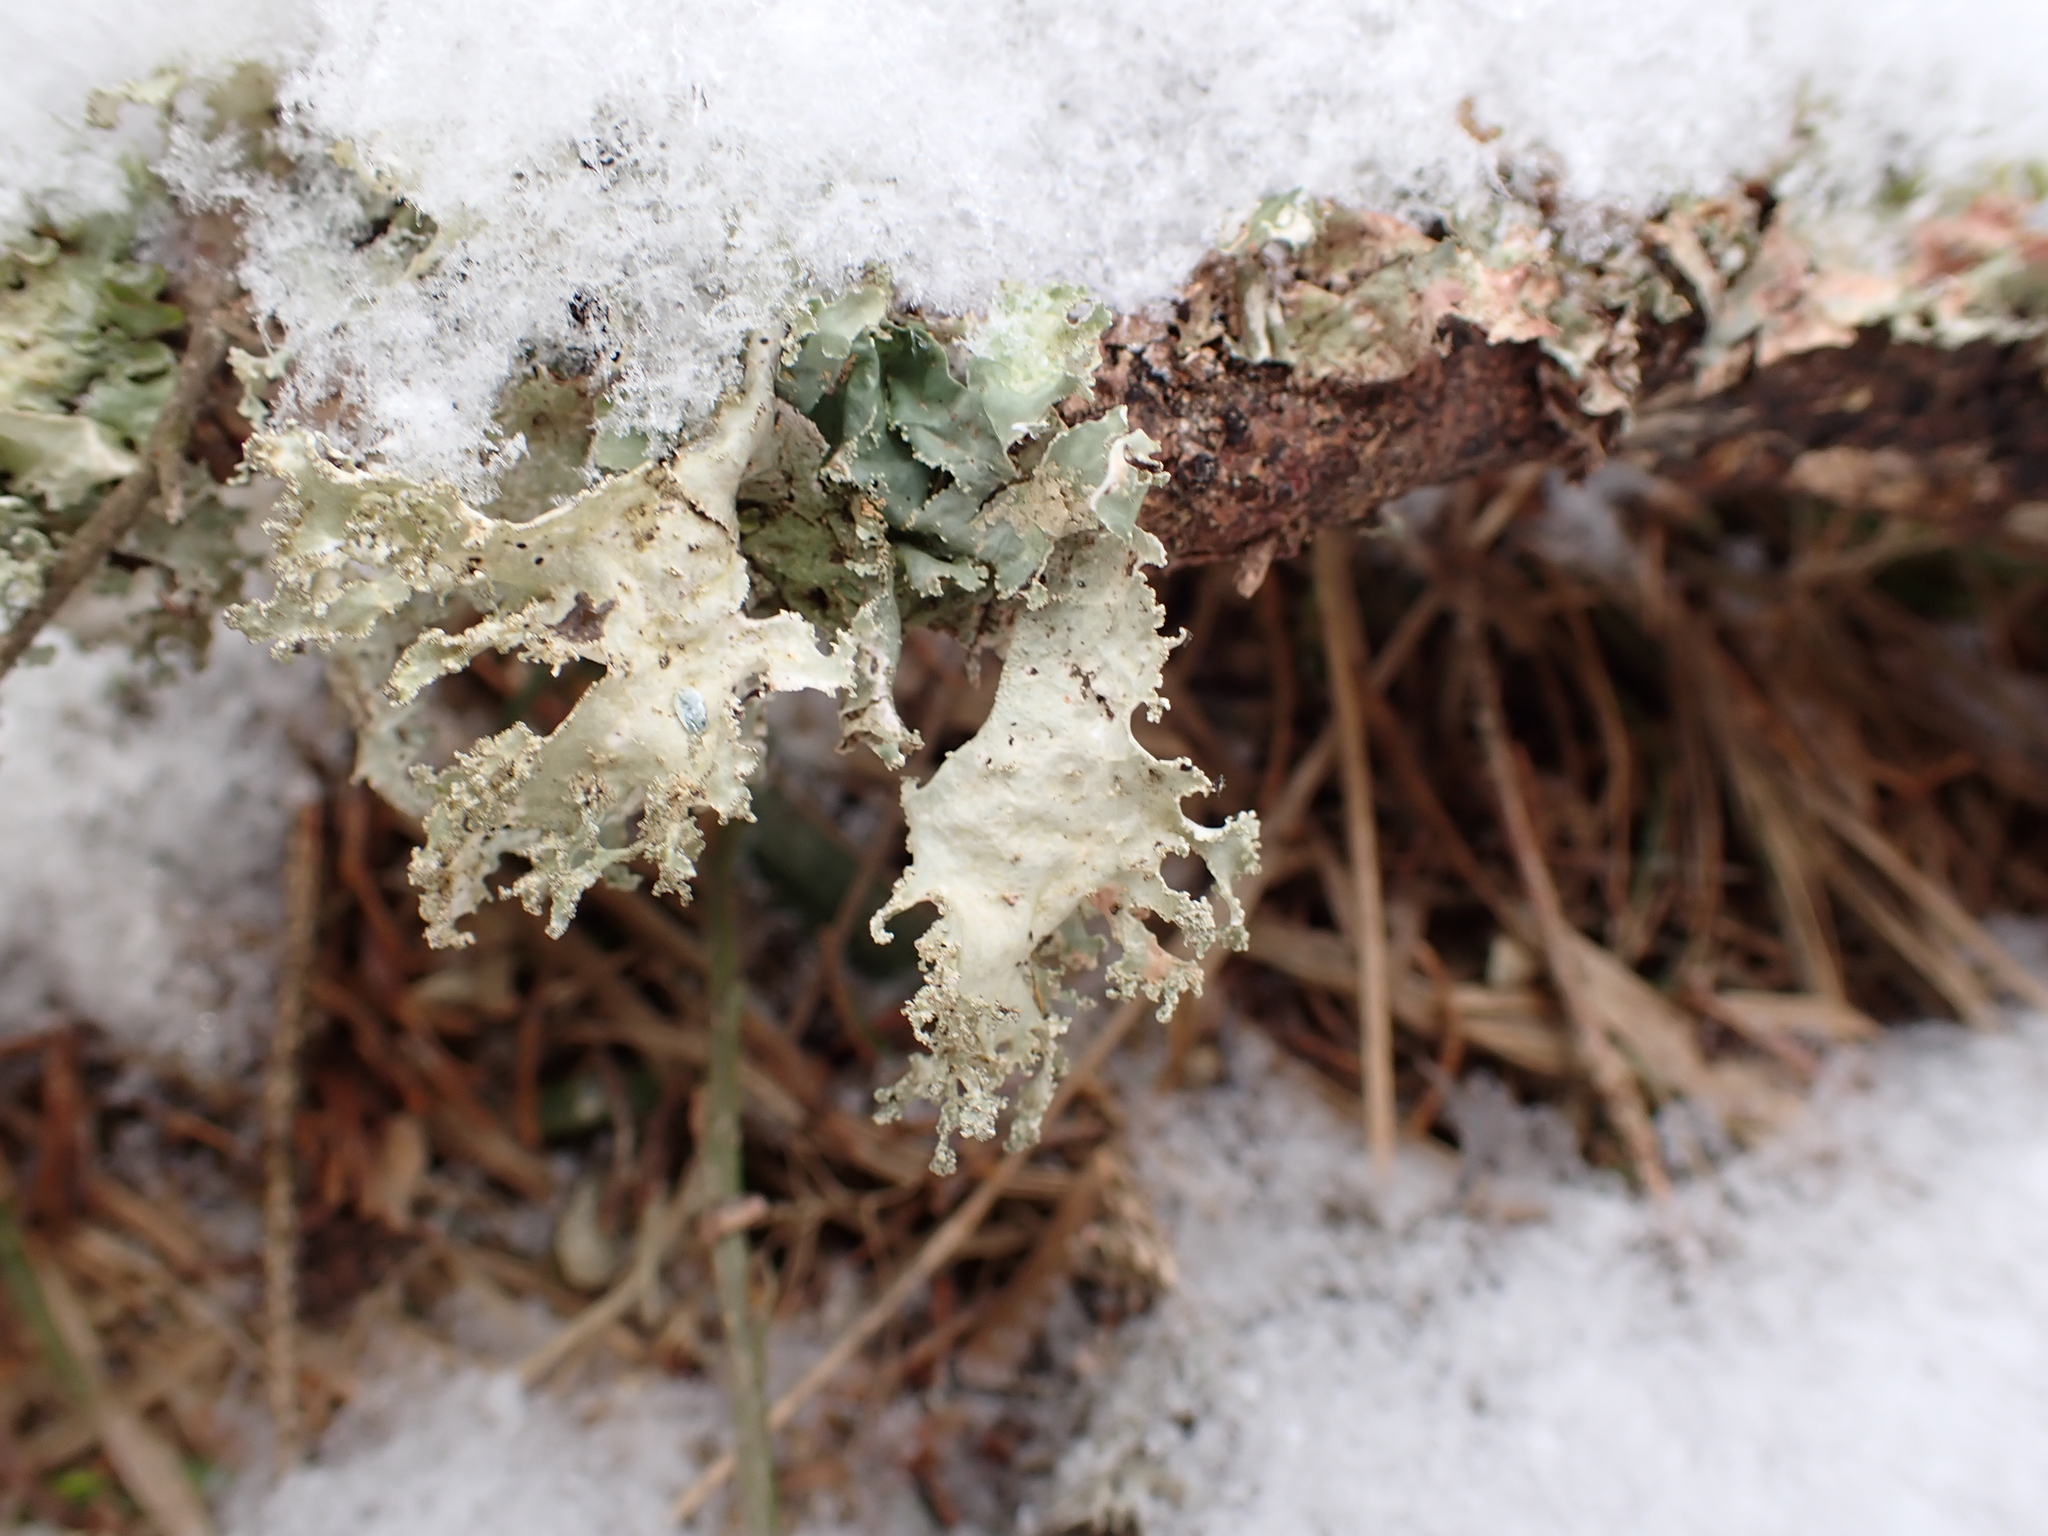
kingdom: Fungi
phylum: Ascomycota
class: Lecanoromycetes
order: Lecanorales
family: Parmeliaceae
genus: Platismatia
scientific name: Platismatia glauca
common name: Varied rag lichen
